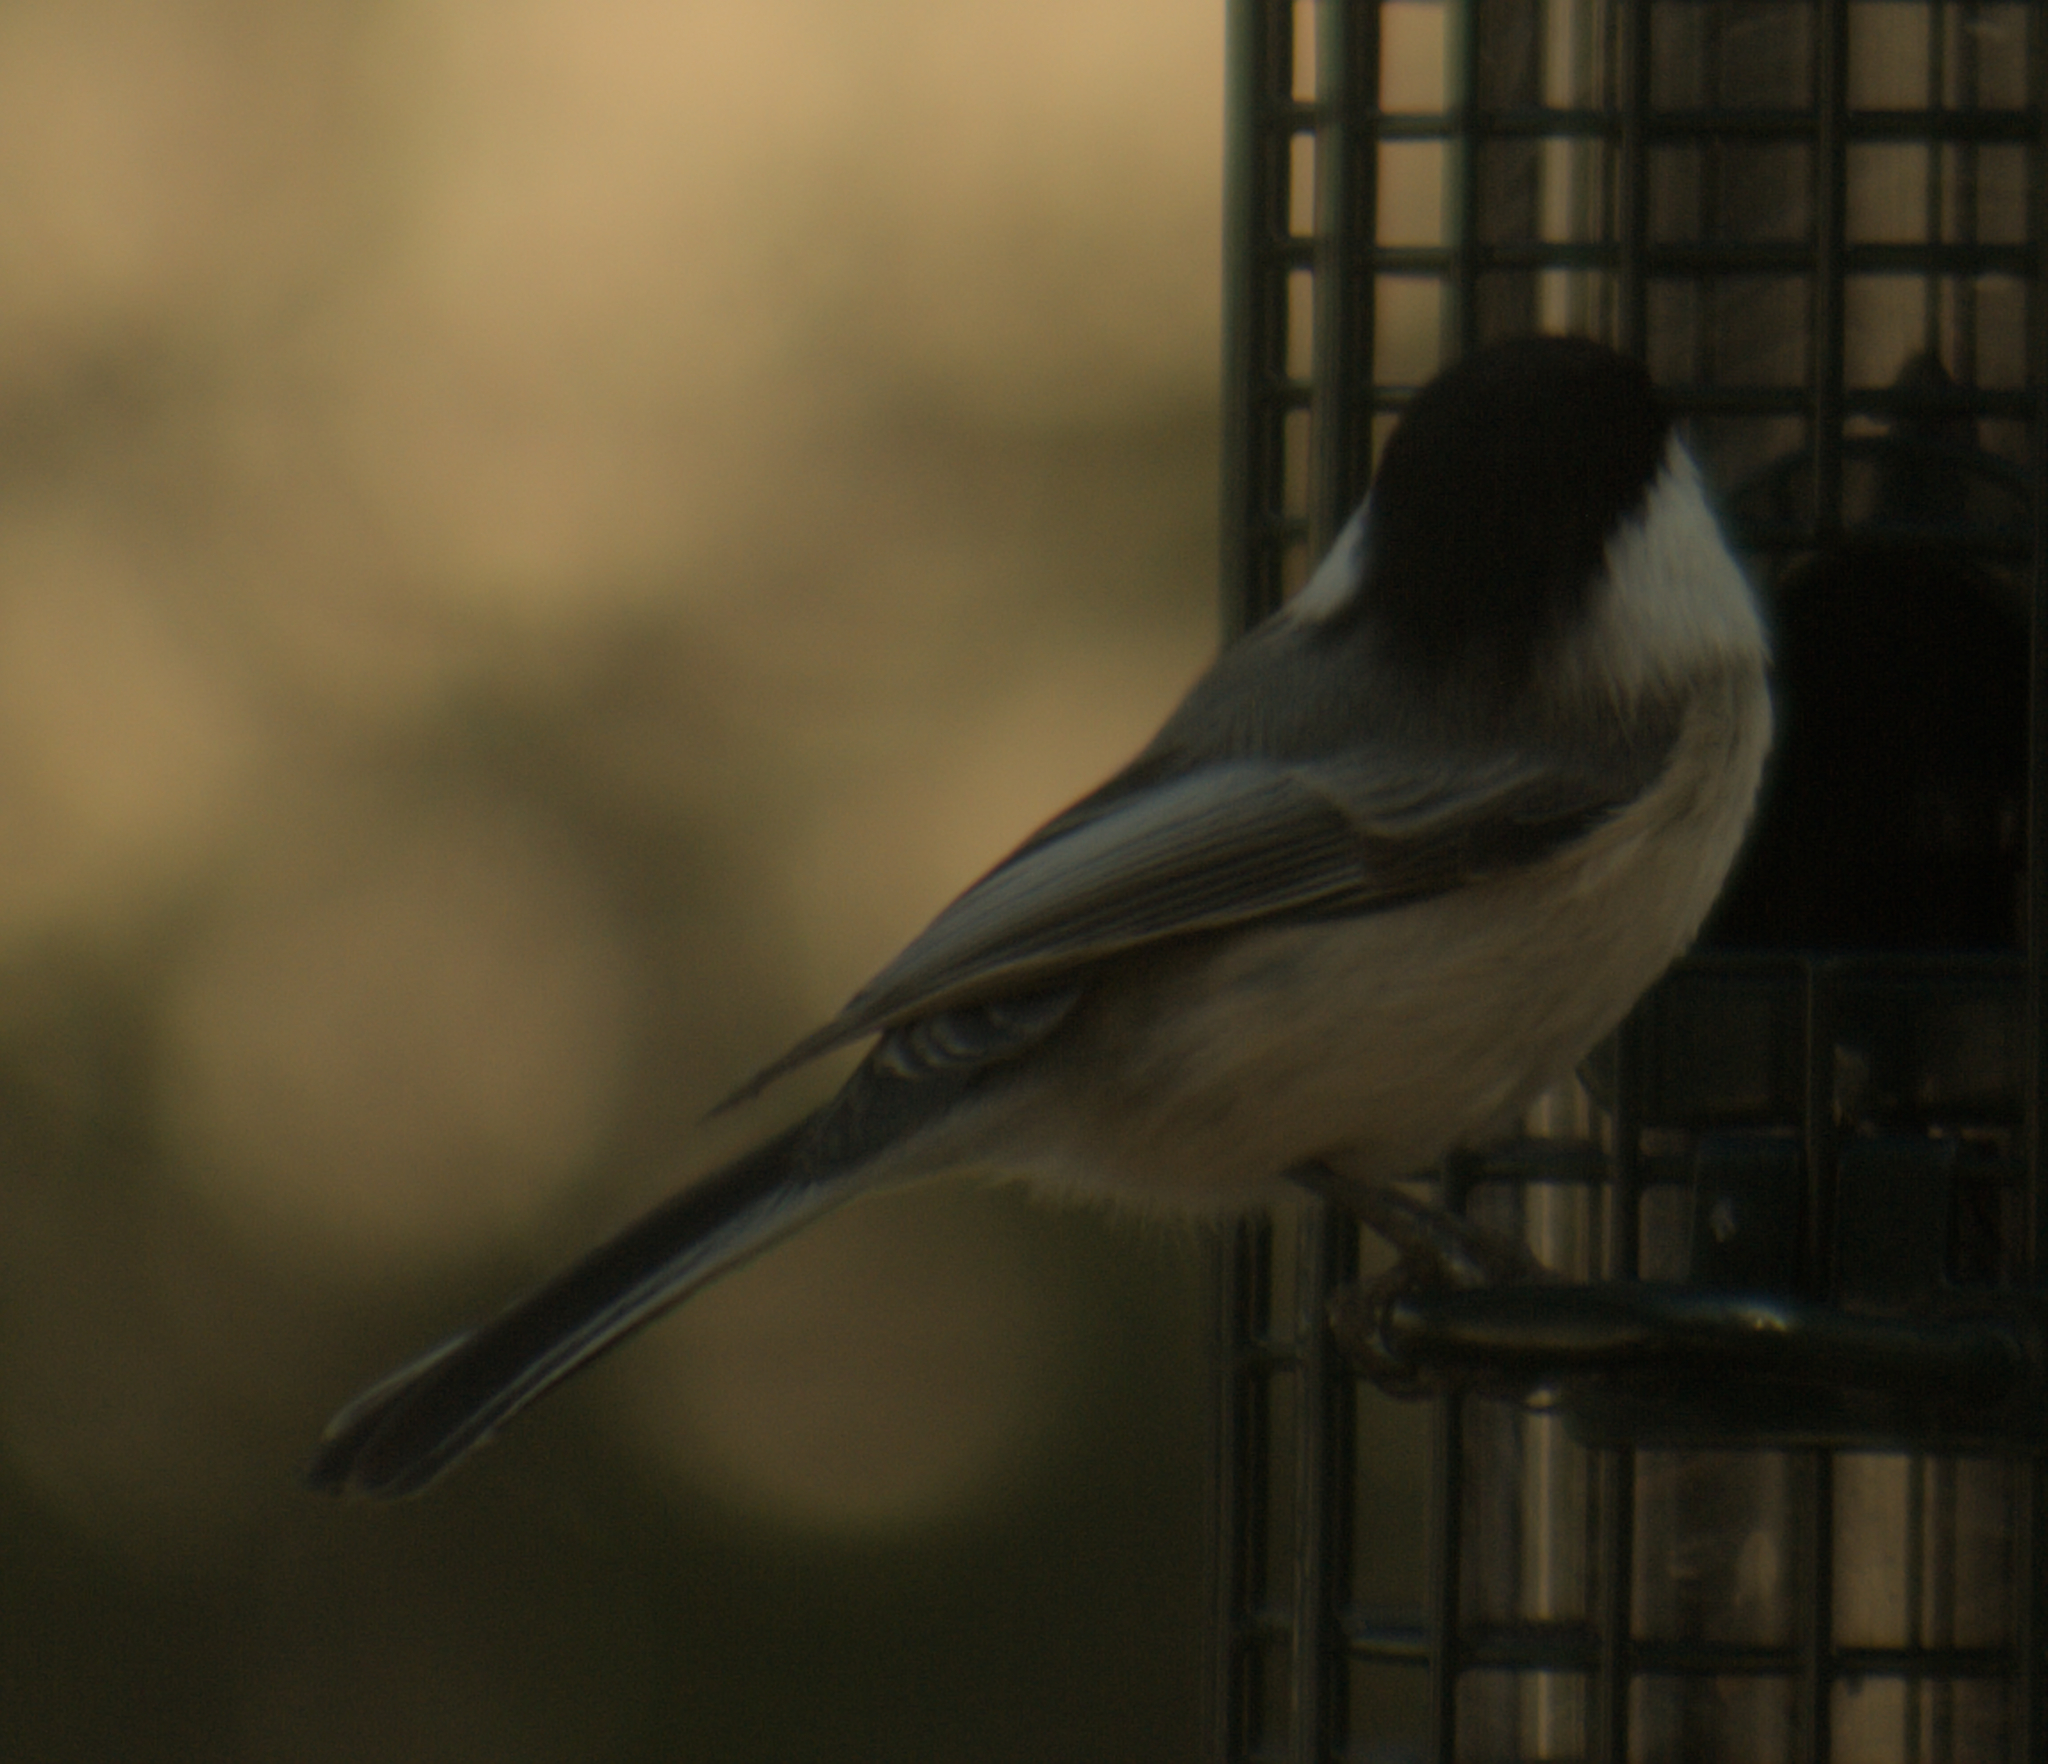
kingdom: Animalia
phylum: Chordata
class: Aves
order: Passeriformes
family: Paridae
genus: Poecile
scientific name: Poecile atricapillus
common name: Black-capped chickadee
